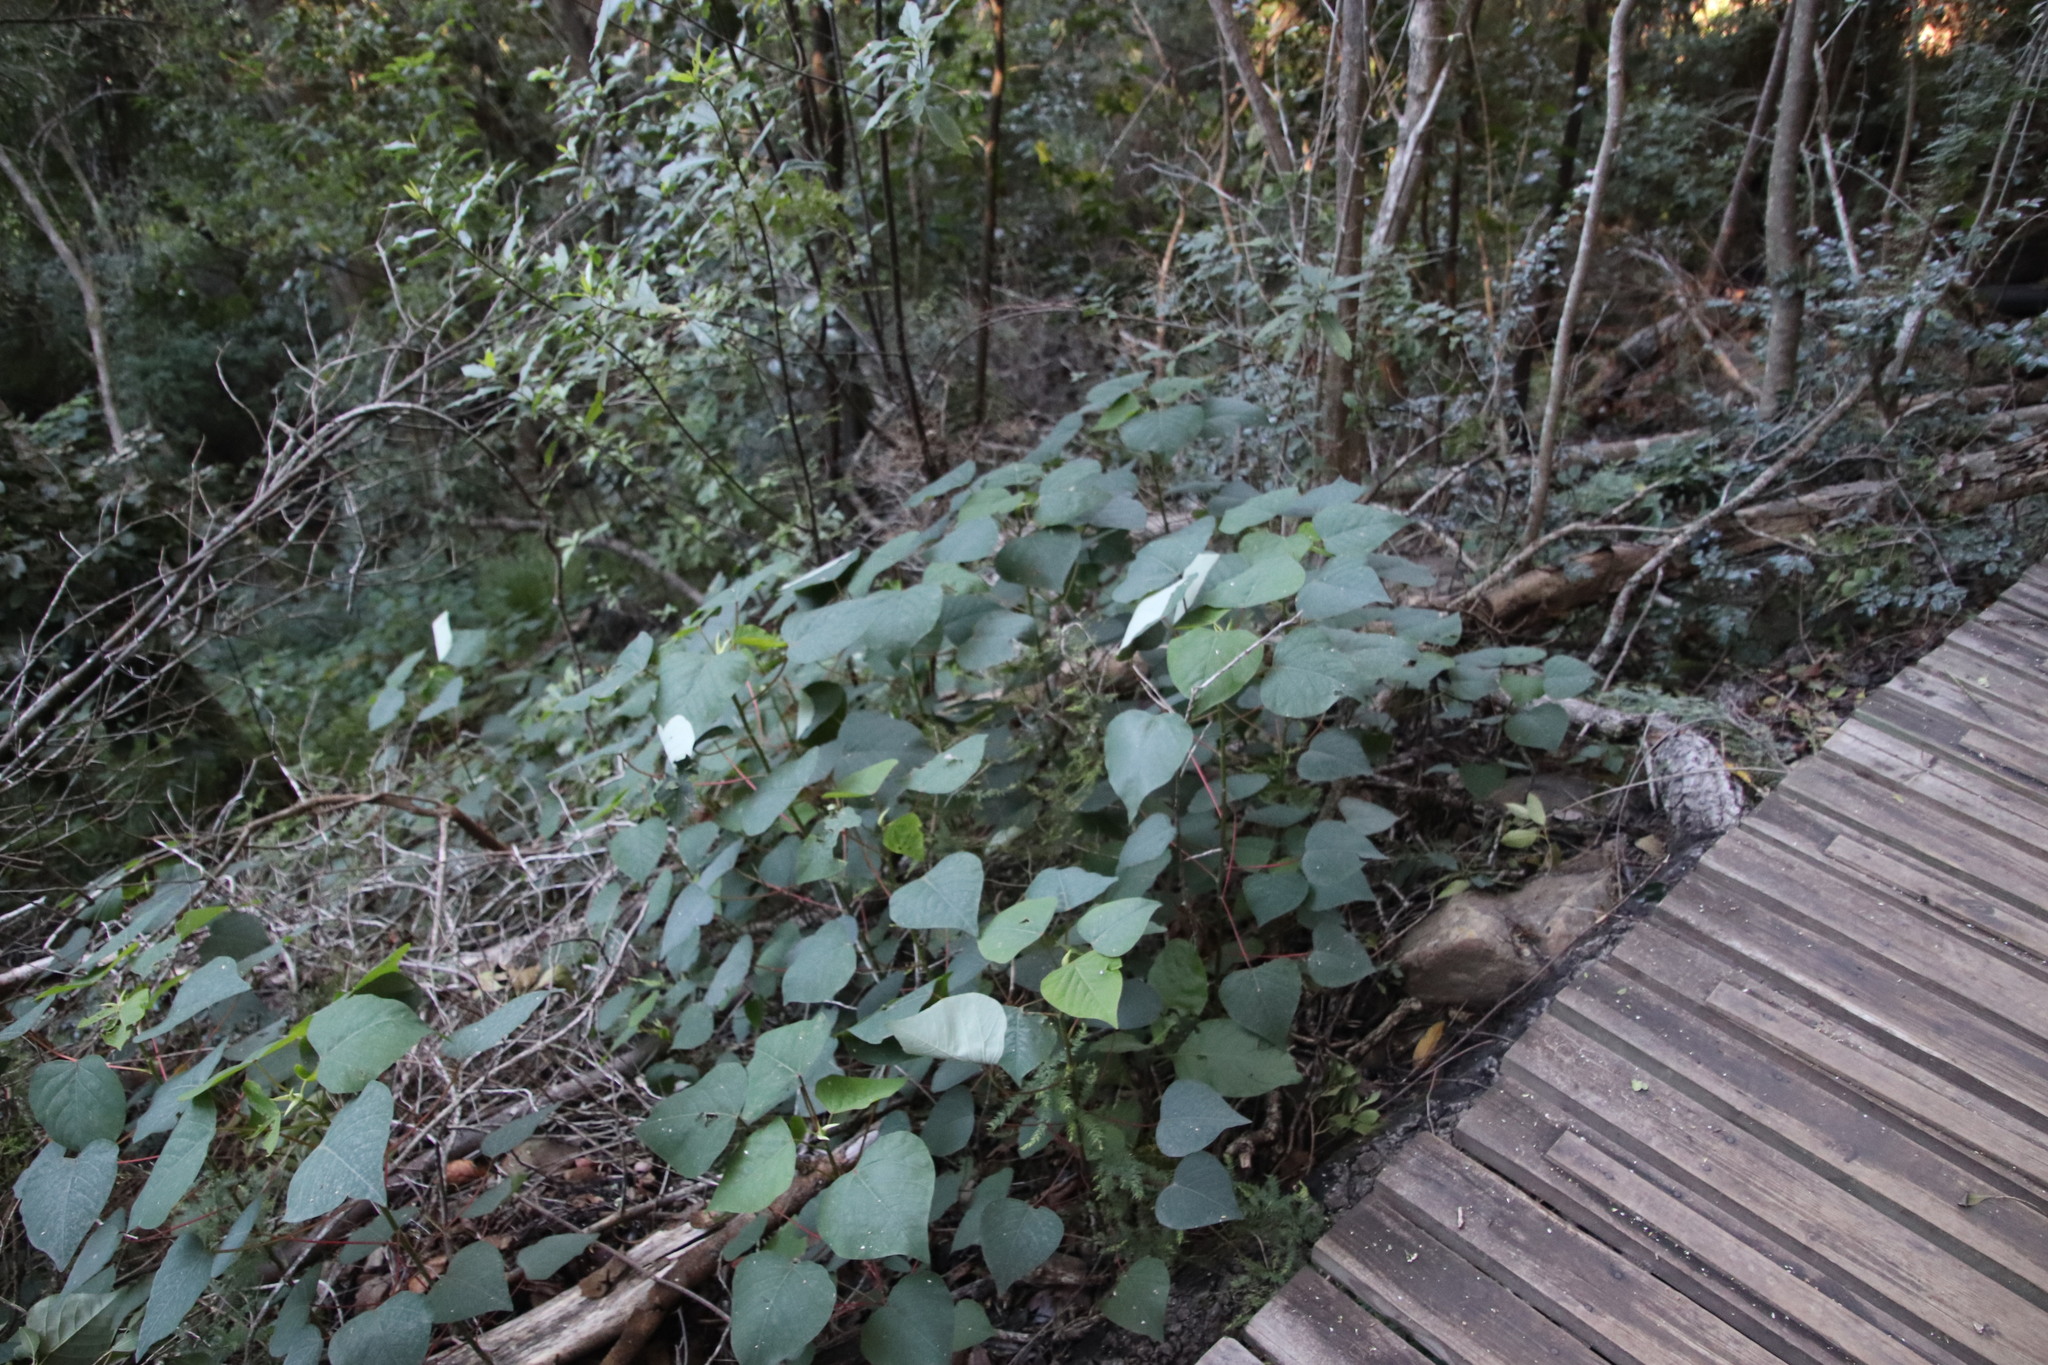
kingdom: Plantae
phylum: Tracheophyta
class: Magnoliopsida
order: Malpighiales
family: Euphorbiaceae
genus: Homalanthus
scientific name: Homalanthus populifolius
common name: Queensland poplar
